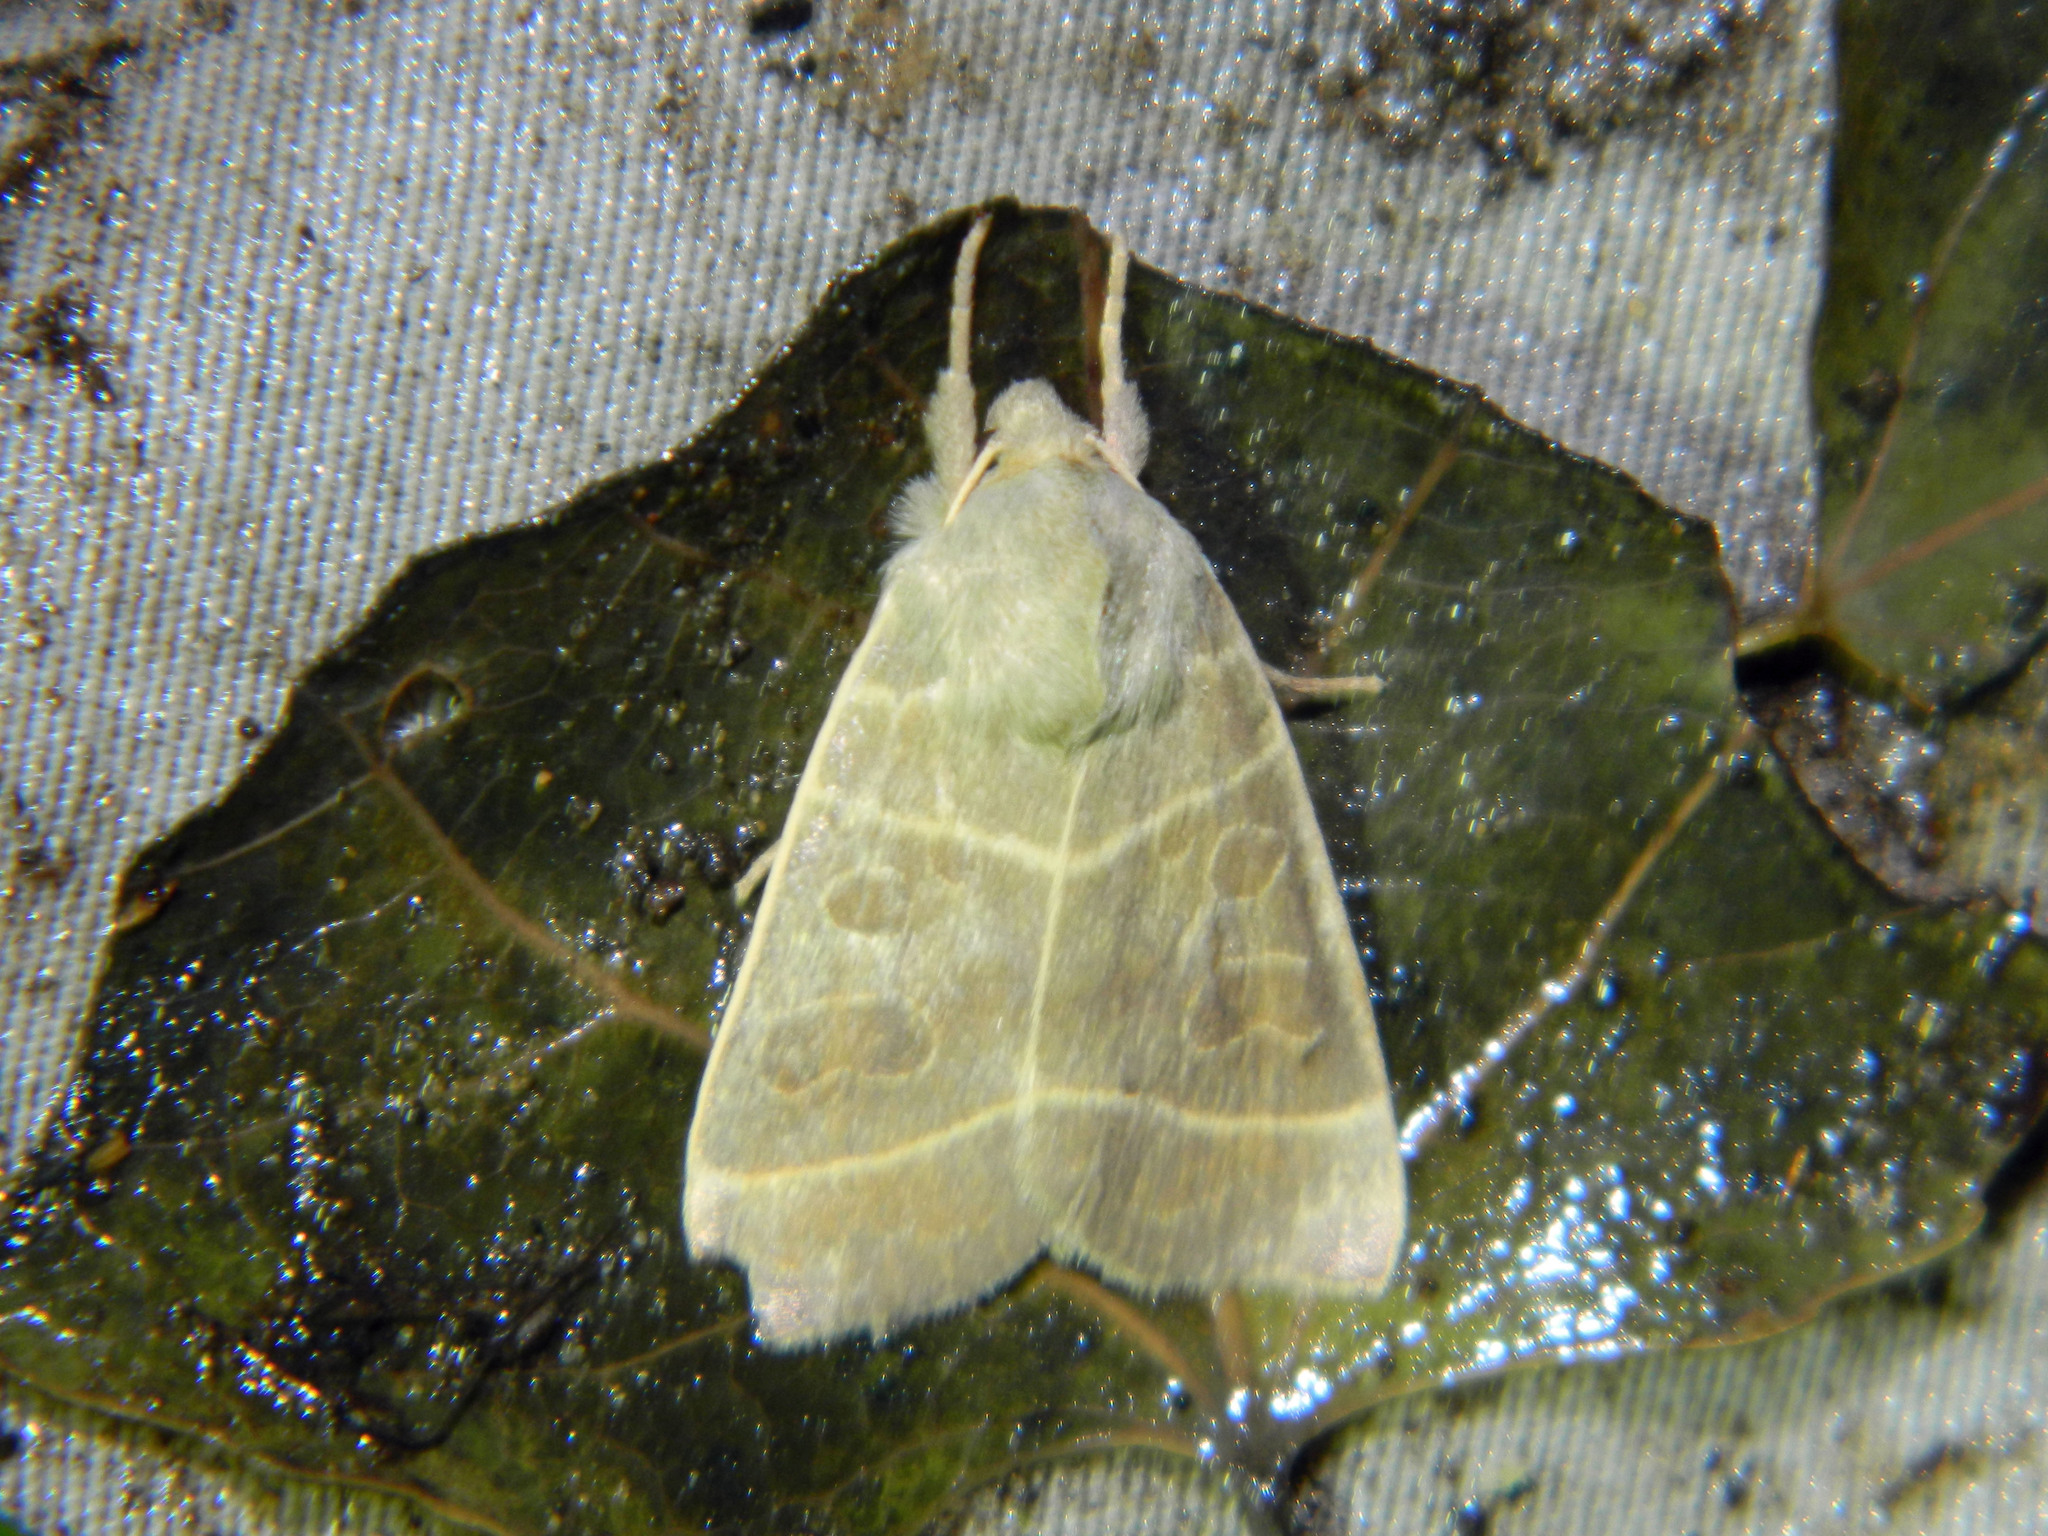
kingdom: Animalia
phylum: Arthropoda
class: Insecta
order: Lepidoptera
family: Noctuidae
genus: Ipimorpha
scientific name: Ipimorpha pleonectusa
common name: Even-lined sallow
